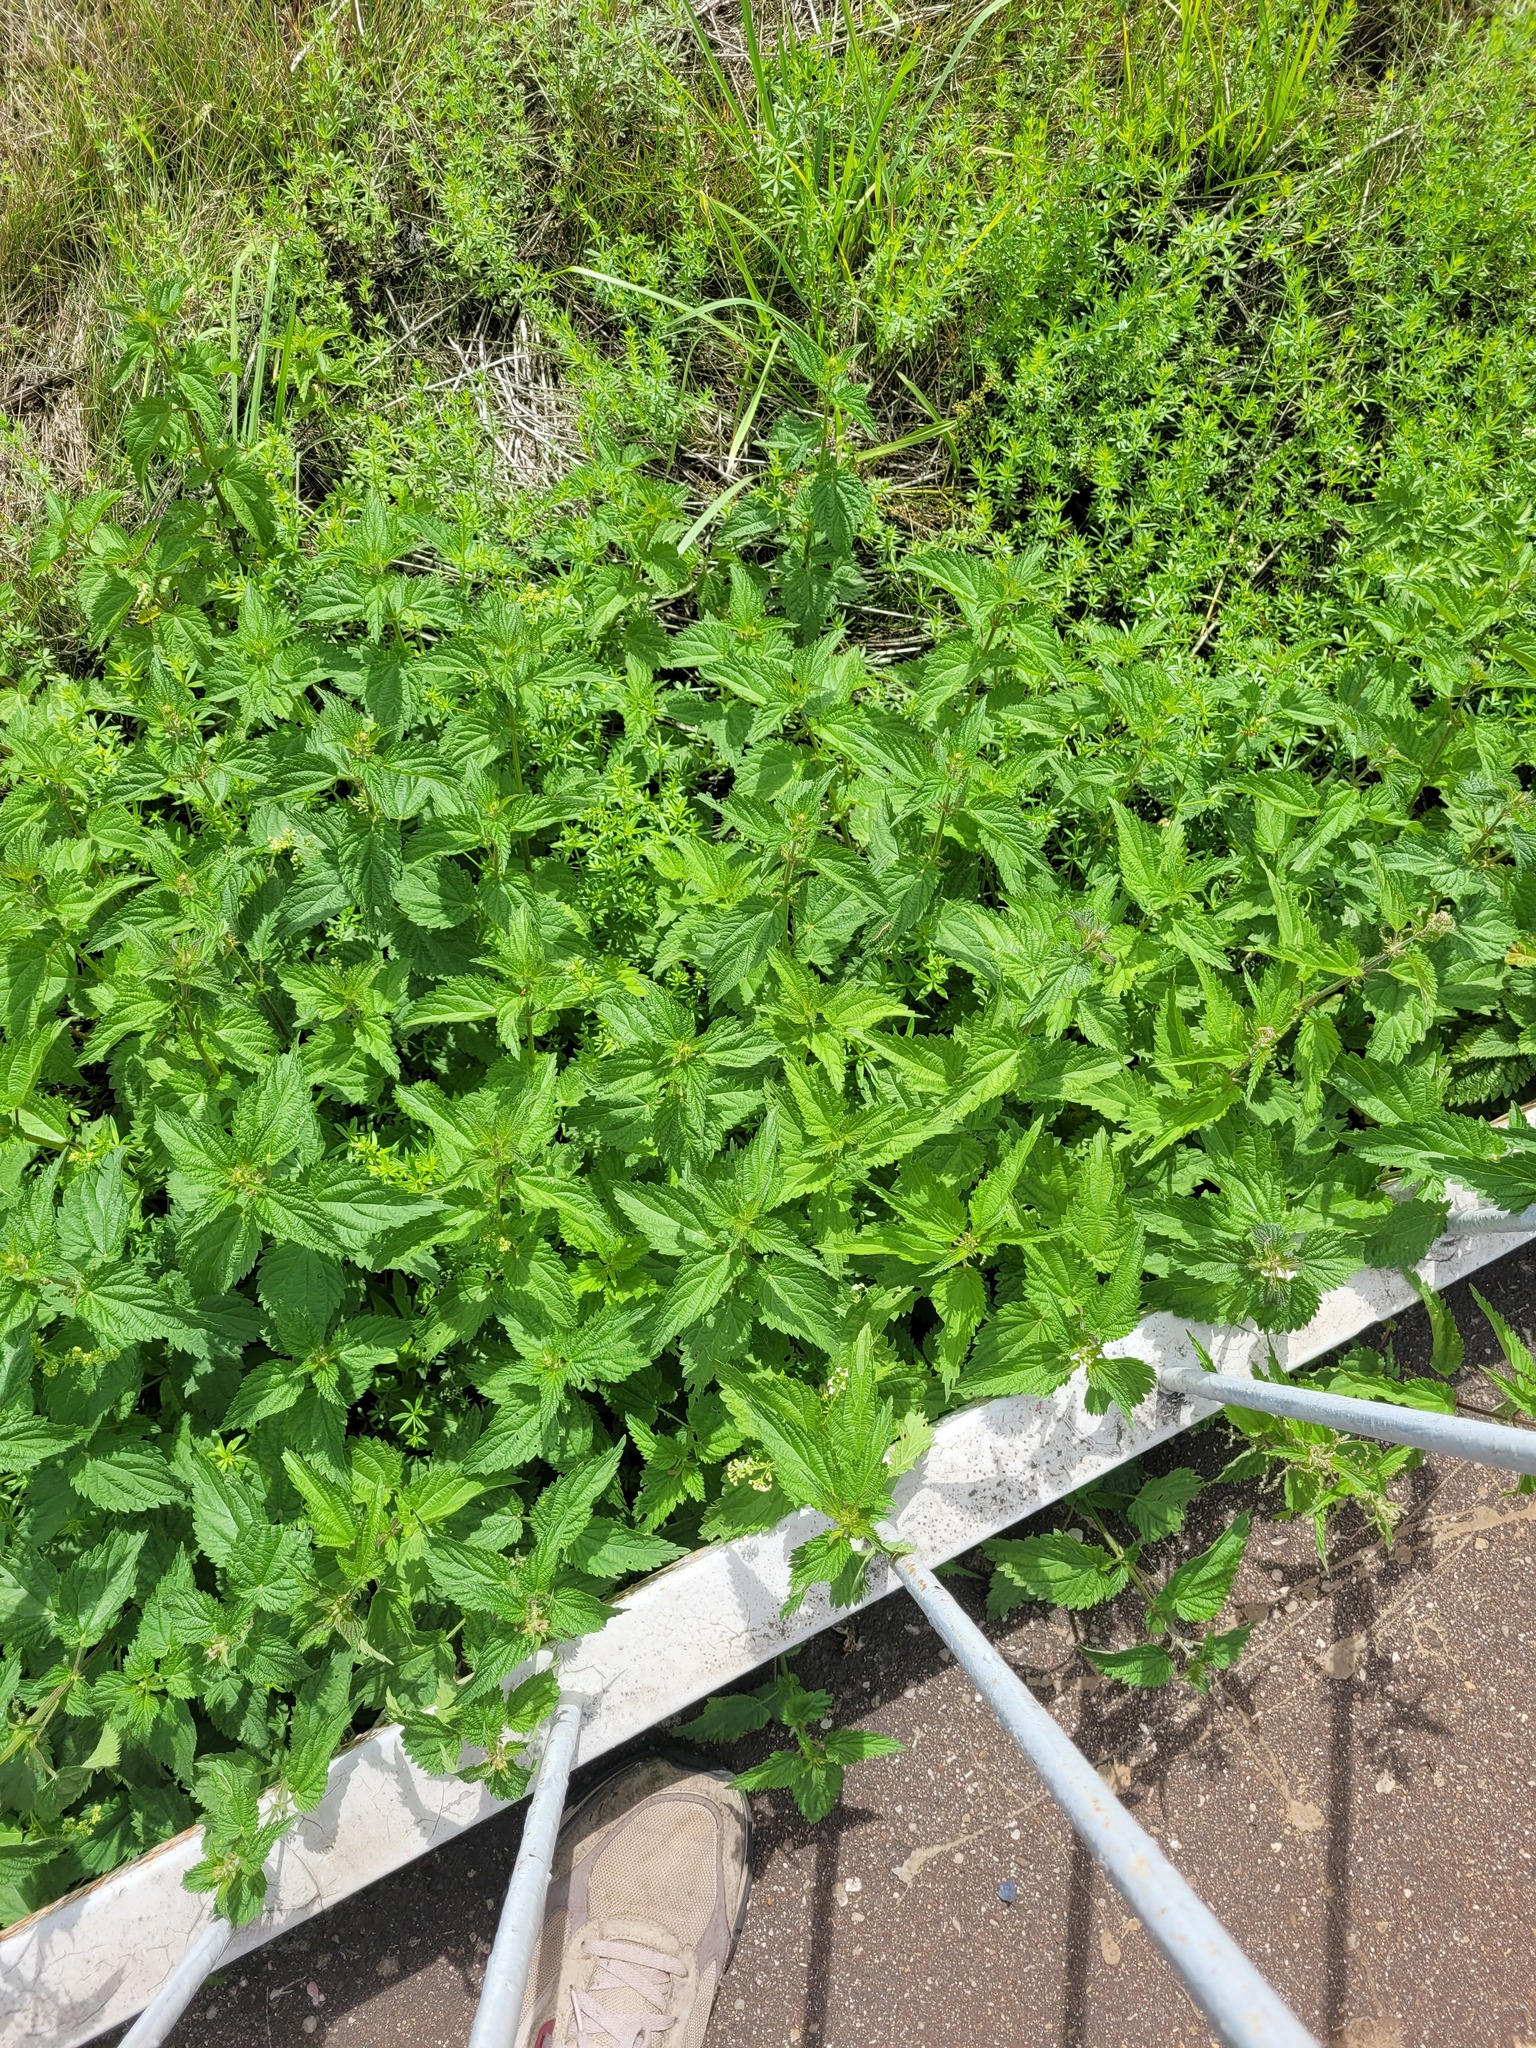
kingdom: Plantae
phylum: Tracheophyta
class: Magnoliopsida
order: Rosales
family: Urticaceae
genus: Urtica
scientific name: Urtica dioica
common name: Common nettle
